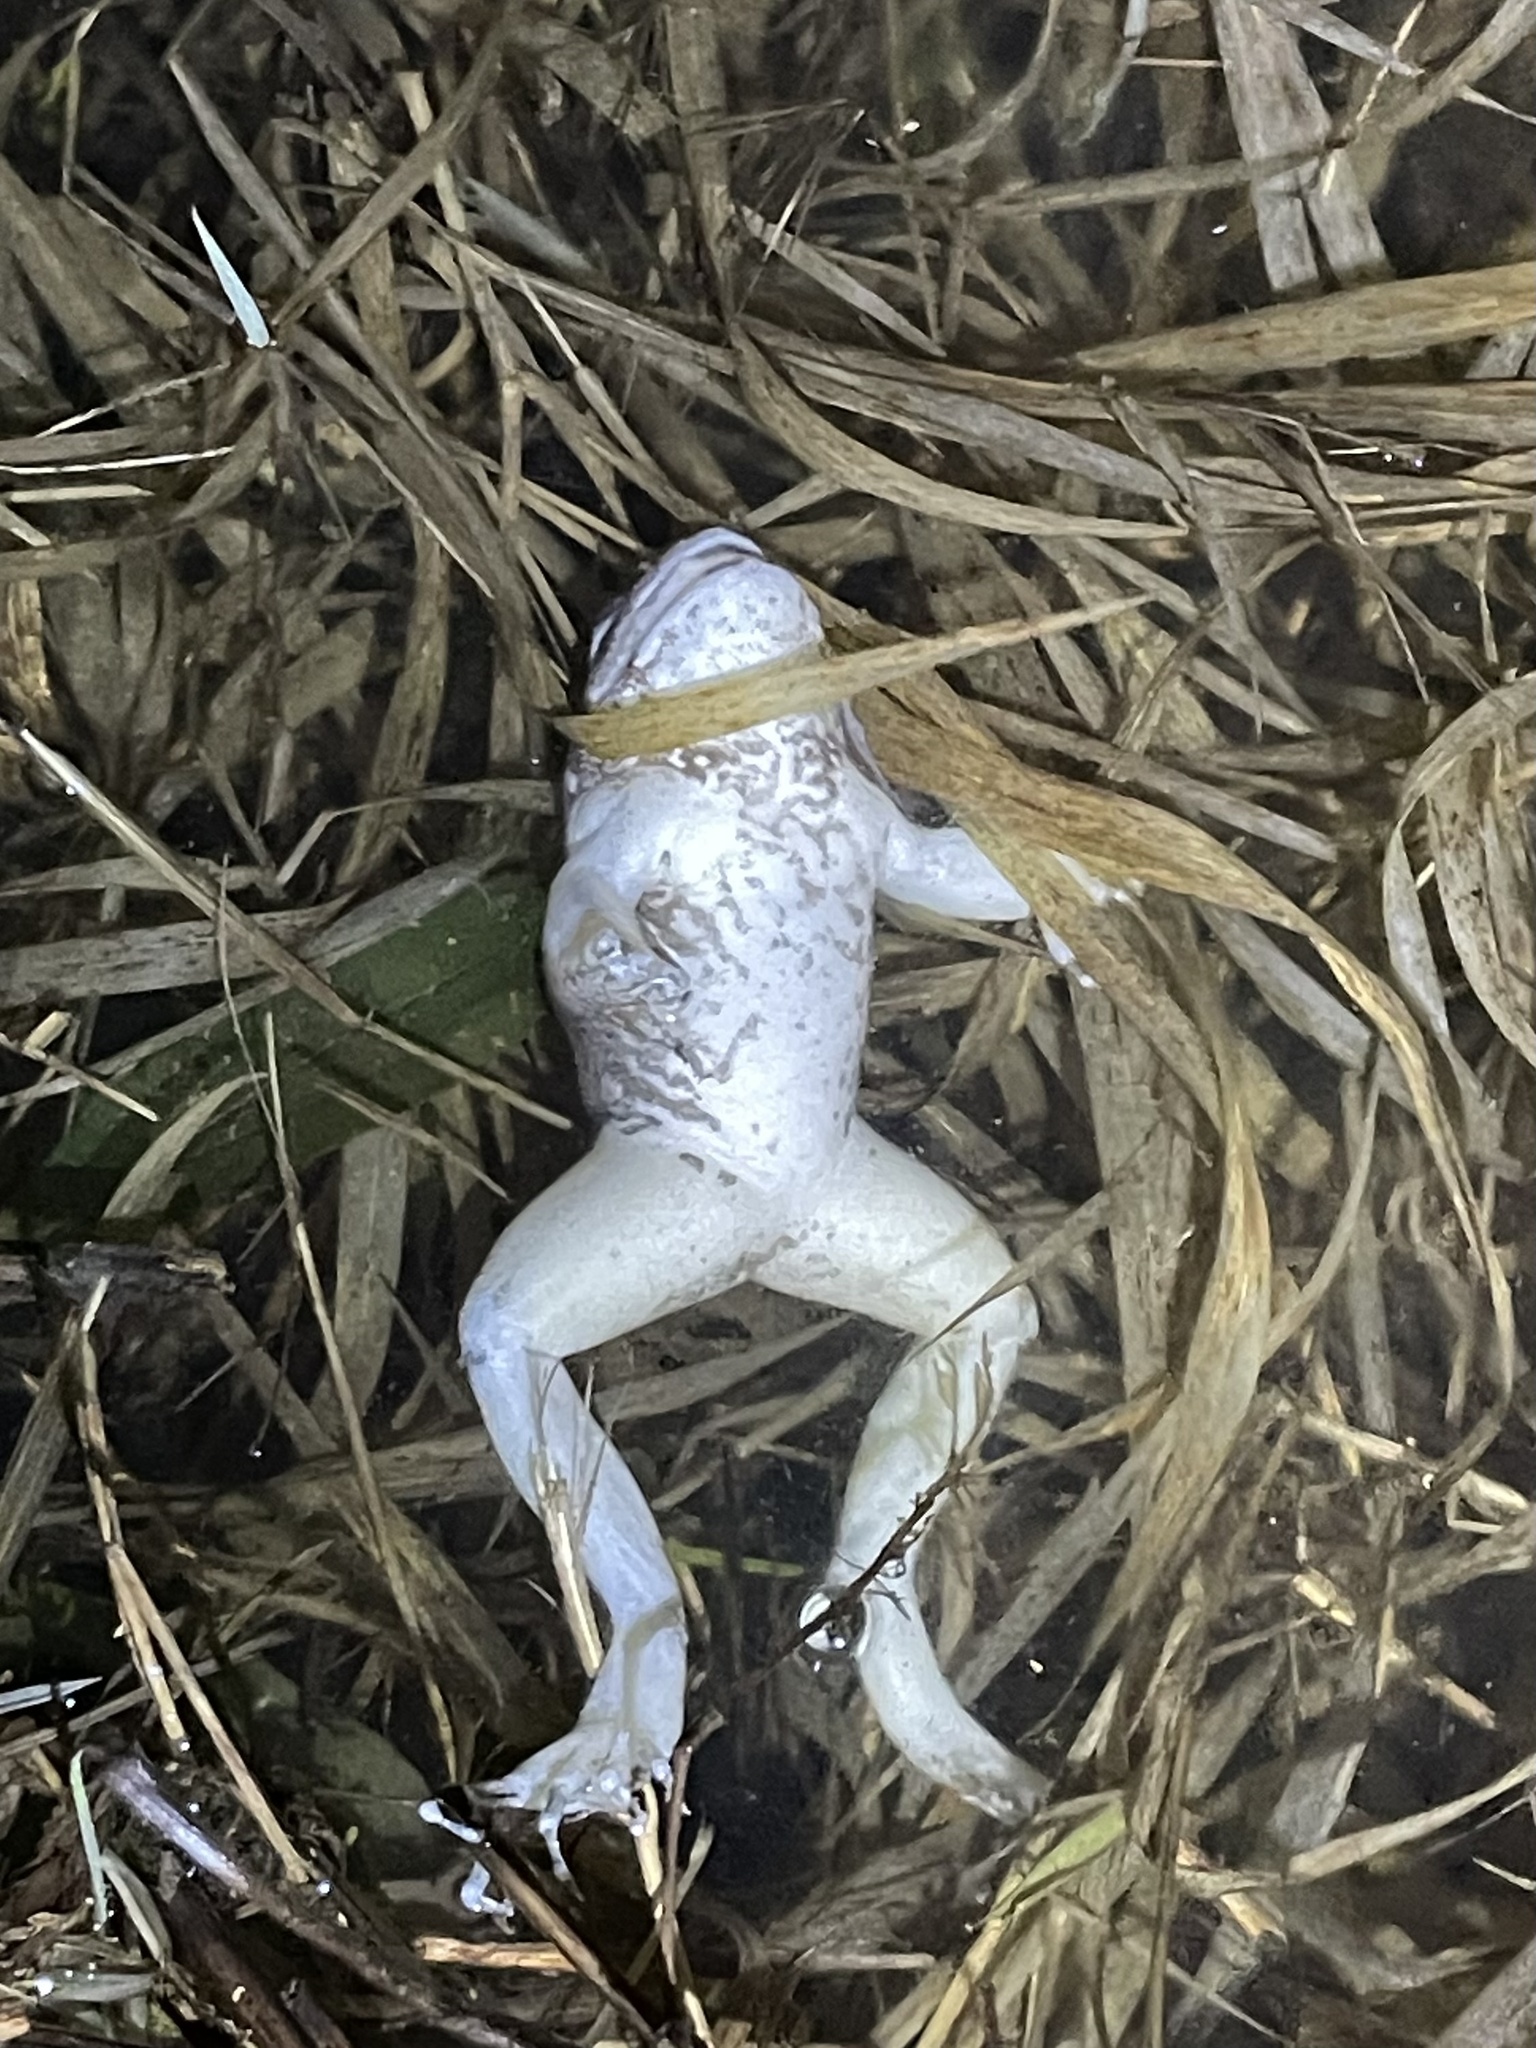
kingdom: Animalia
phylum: Chordata
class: Amphibia
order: Anura
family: Ranidae
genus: Lithobates
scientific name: Lithobates sylvaticus
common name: Wood frog
